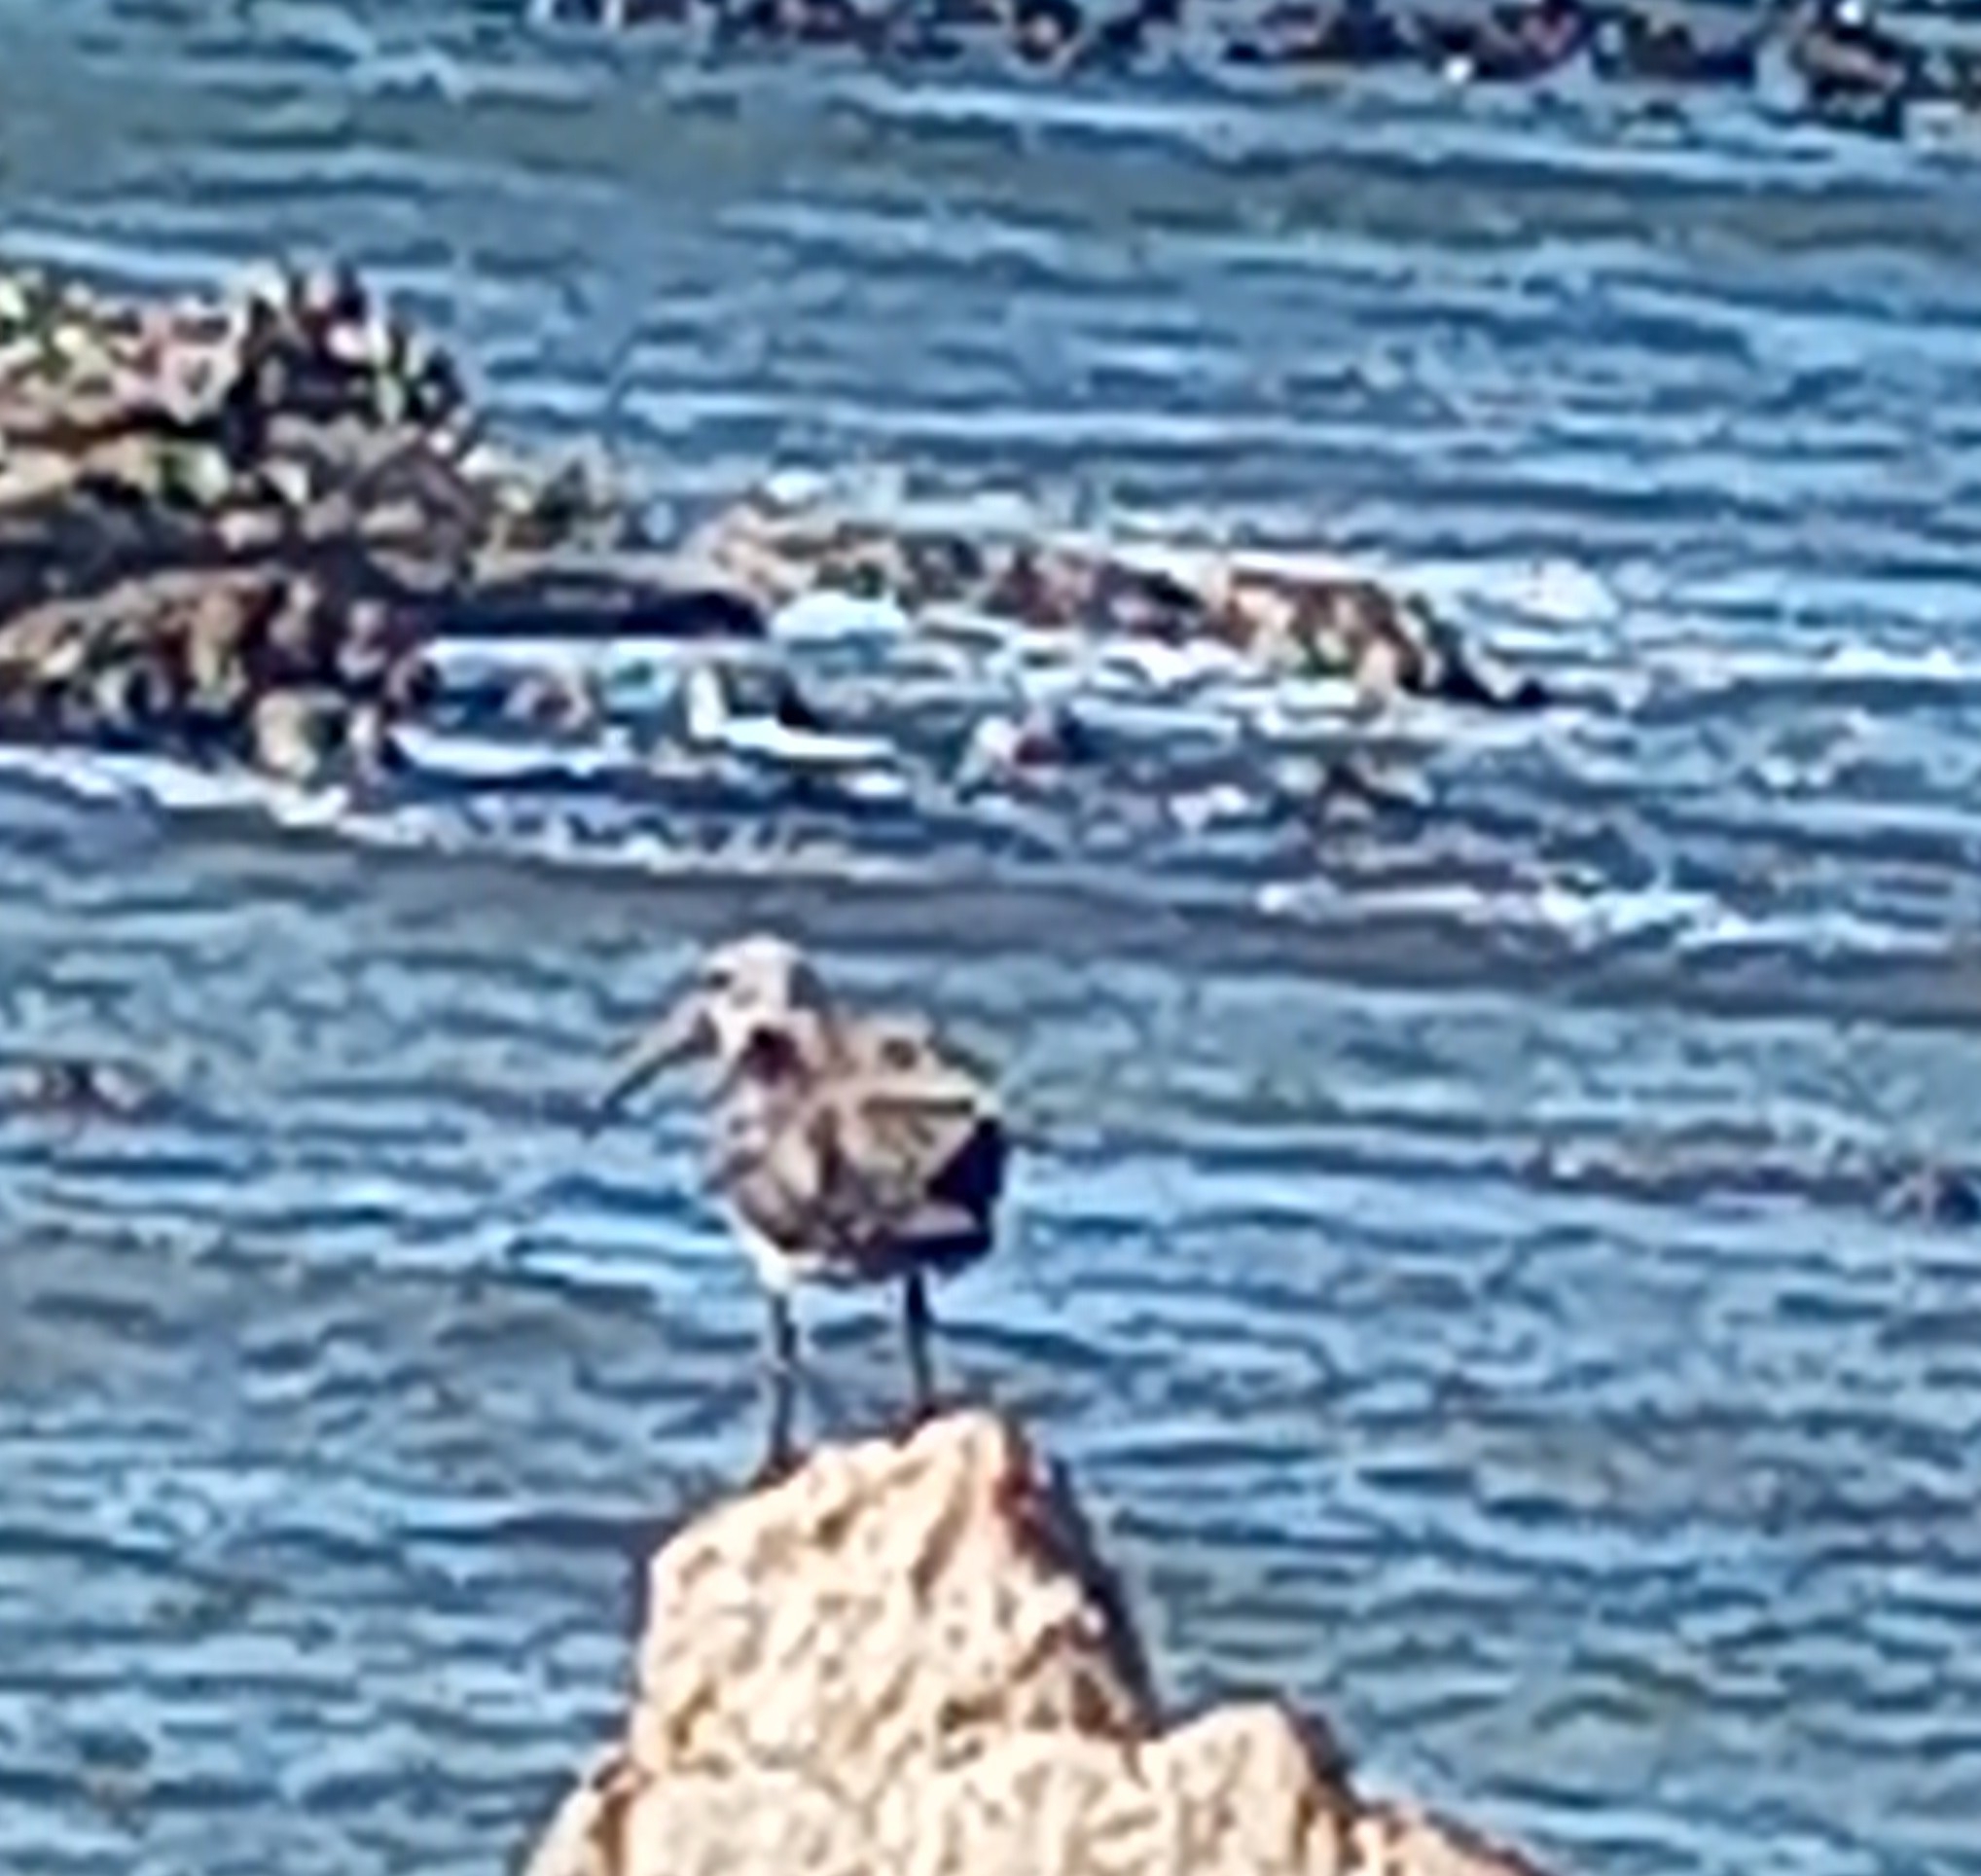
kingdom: Animalia
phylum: Chordata
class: Aves
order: Pelecaniformes
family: Threskiornithidae
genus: Bostrychia
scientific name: Bostrychia hagedash
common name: Hadada ibis
